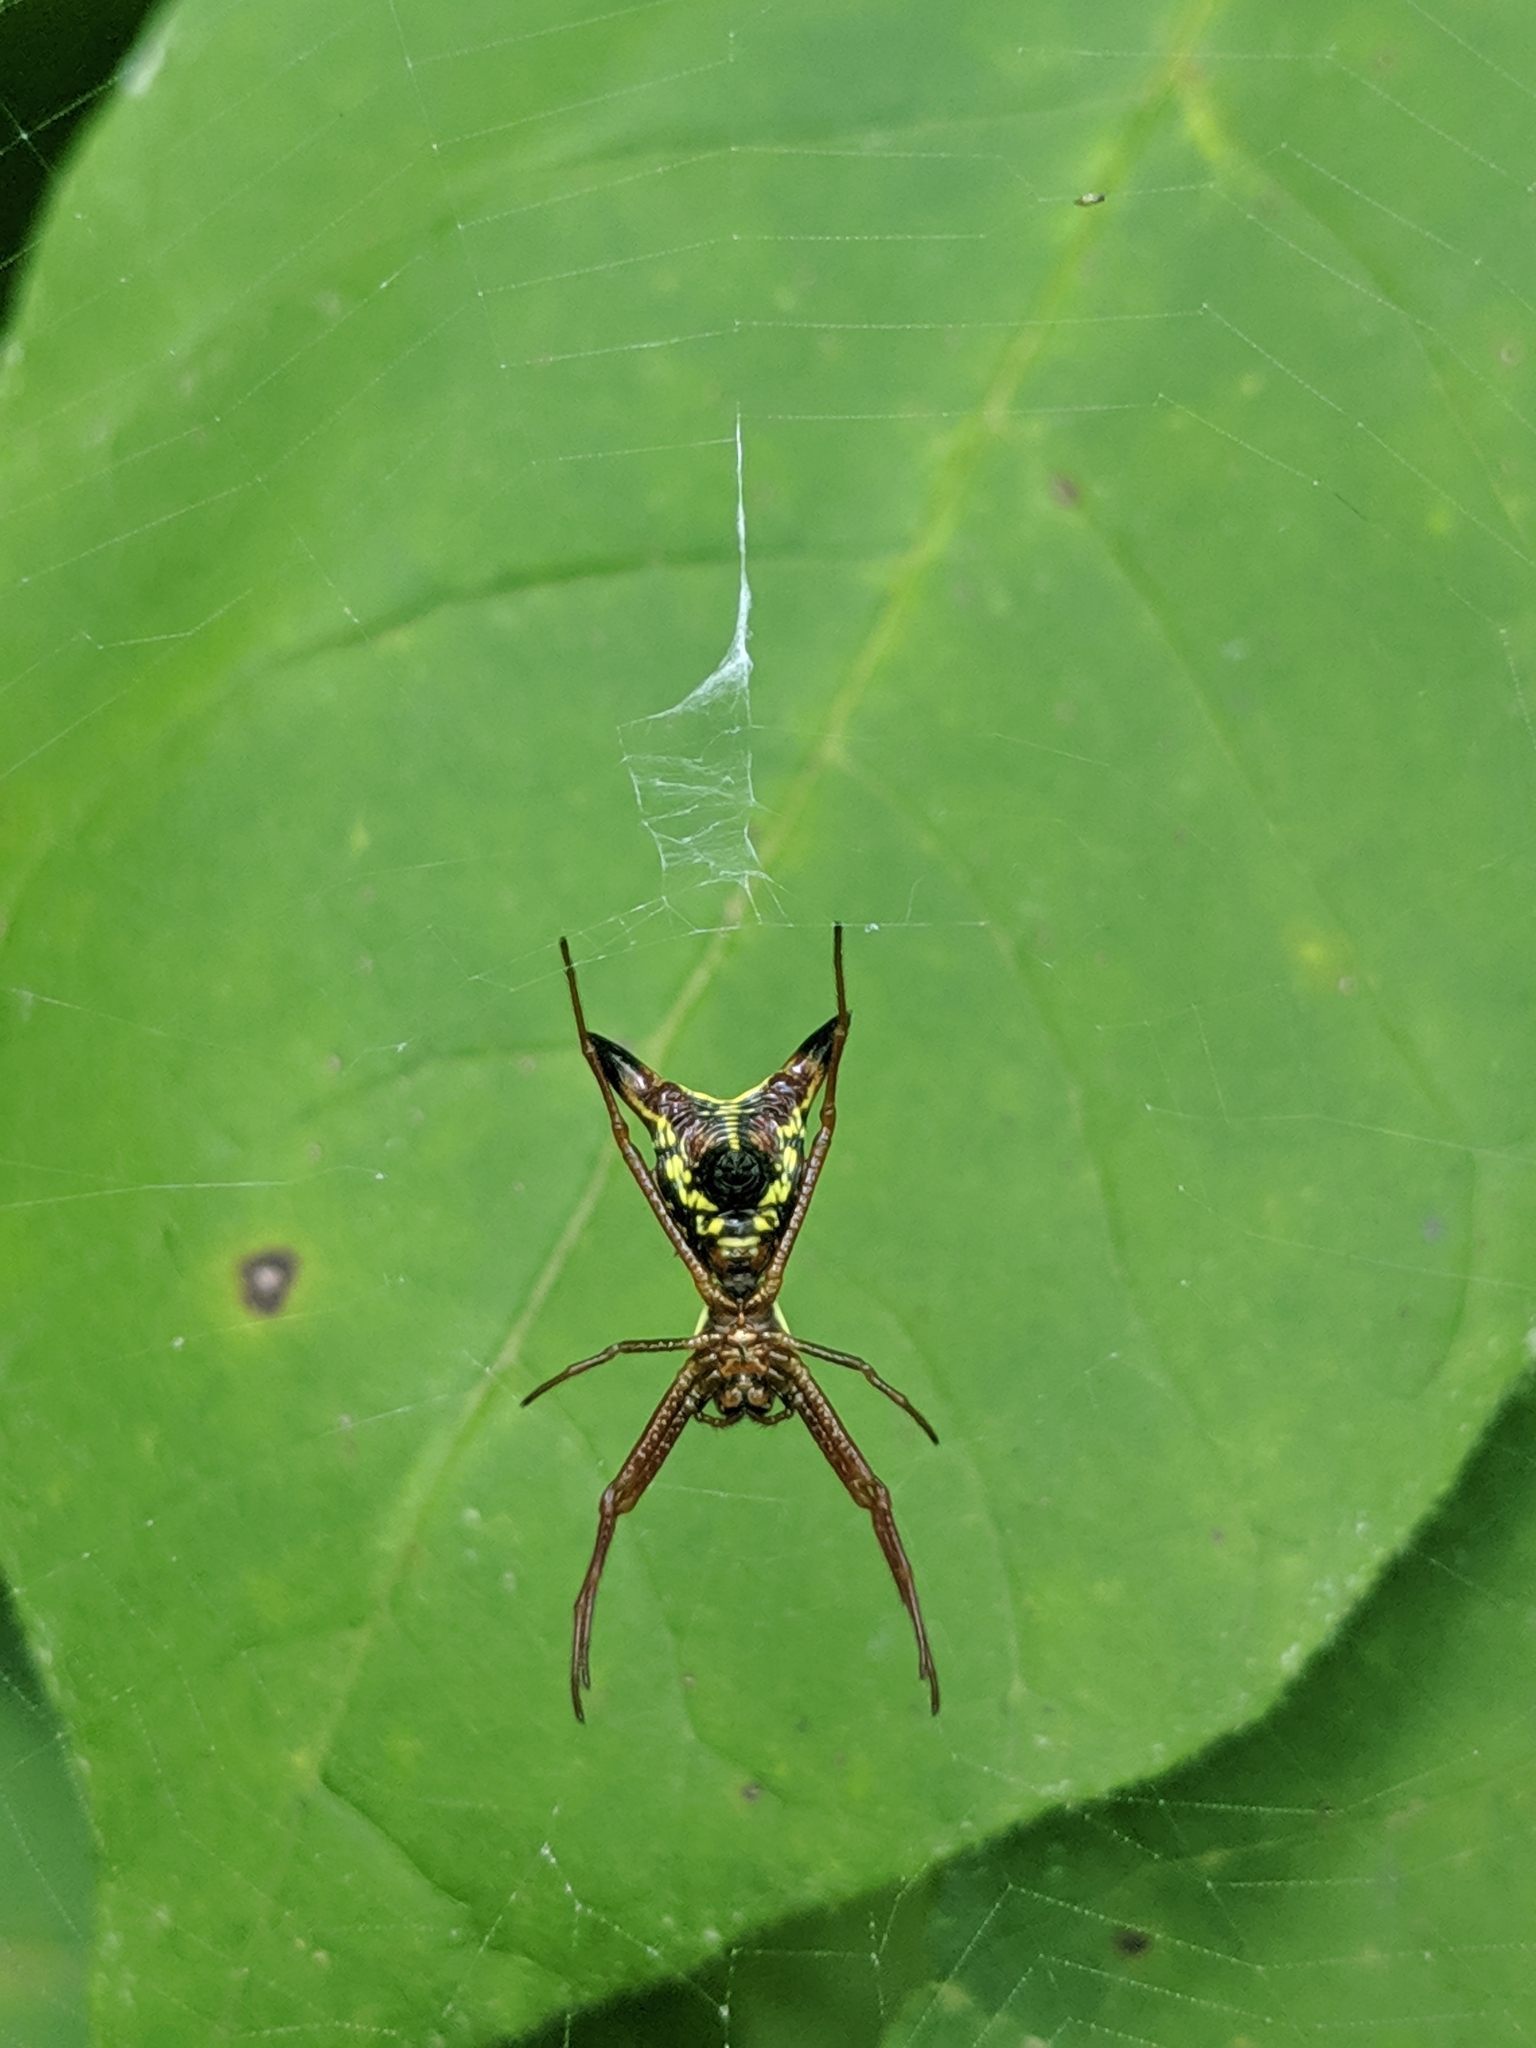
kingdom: Animalia
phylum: Arthropoda
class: Arachnida
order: Araneae
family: Araneidae
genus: Micrathena
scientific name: Micrathena sagittata
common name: Orb weavers
